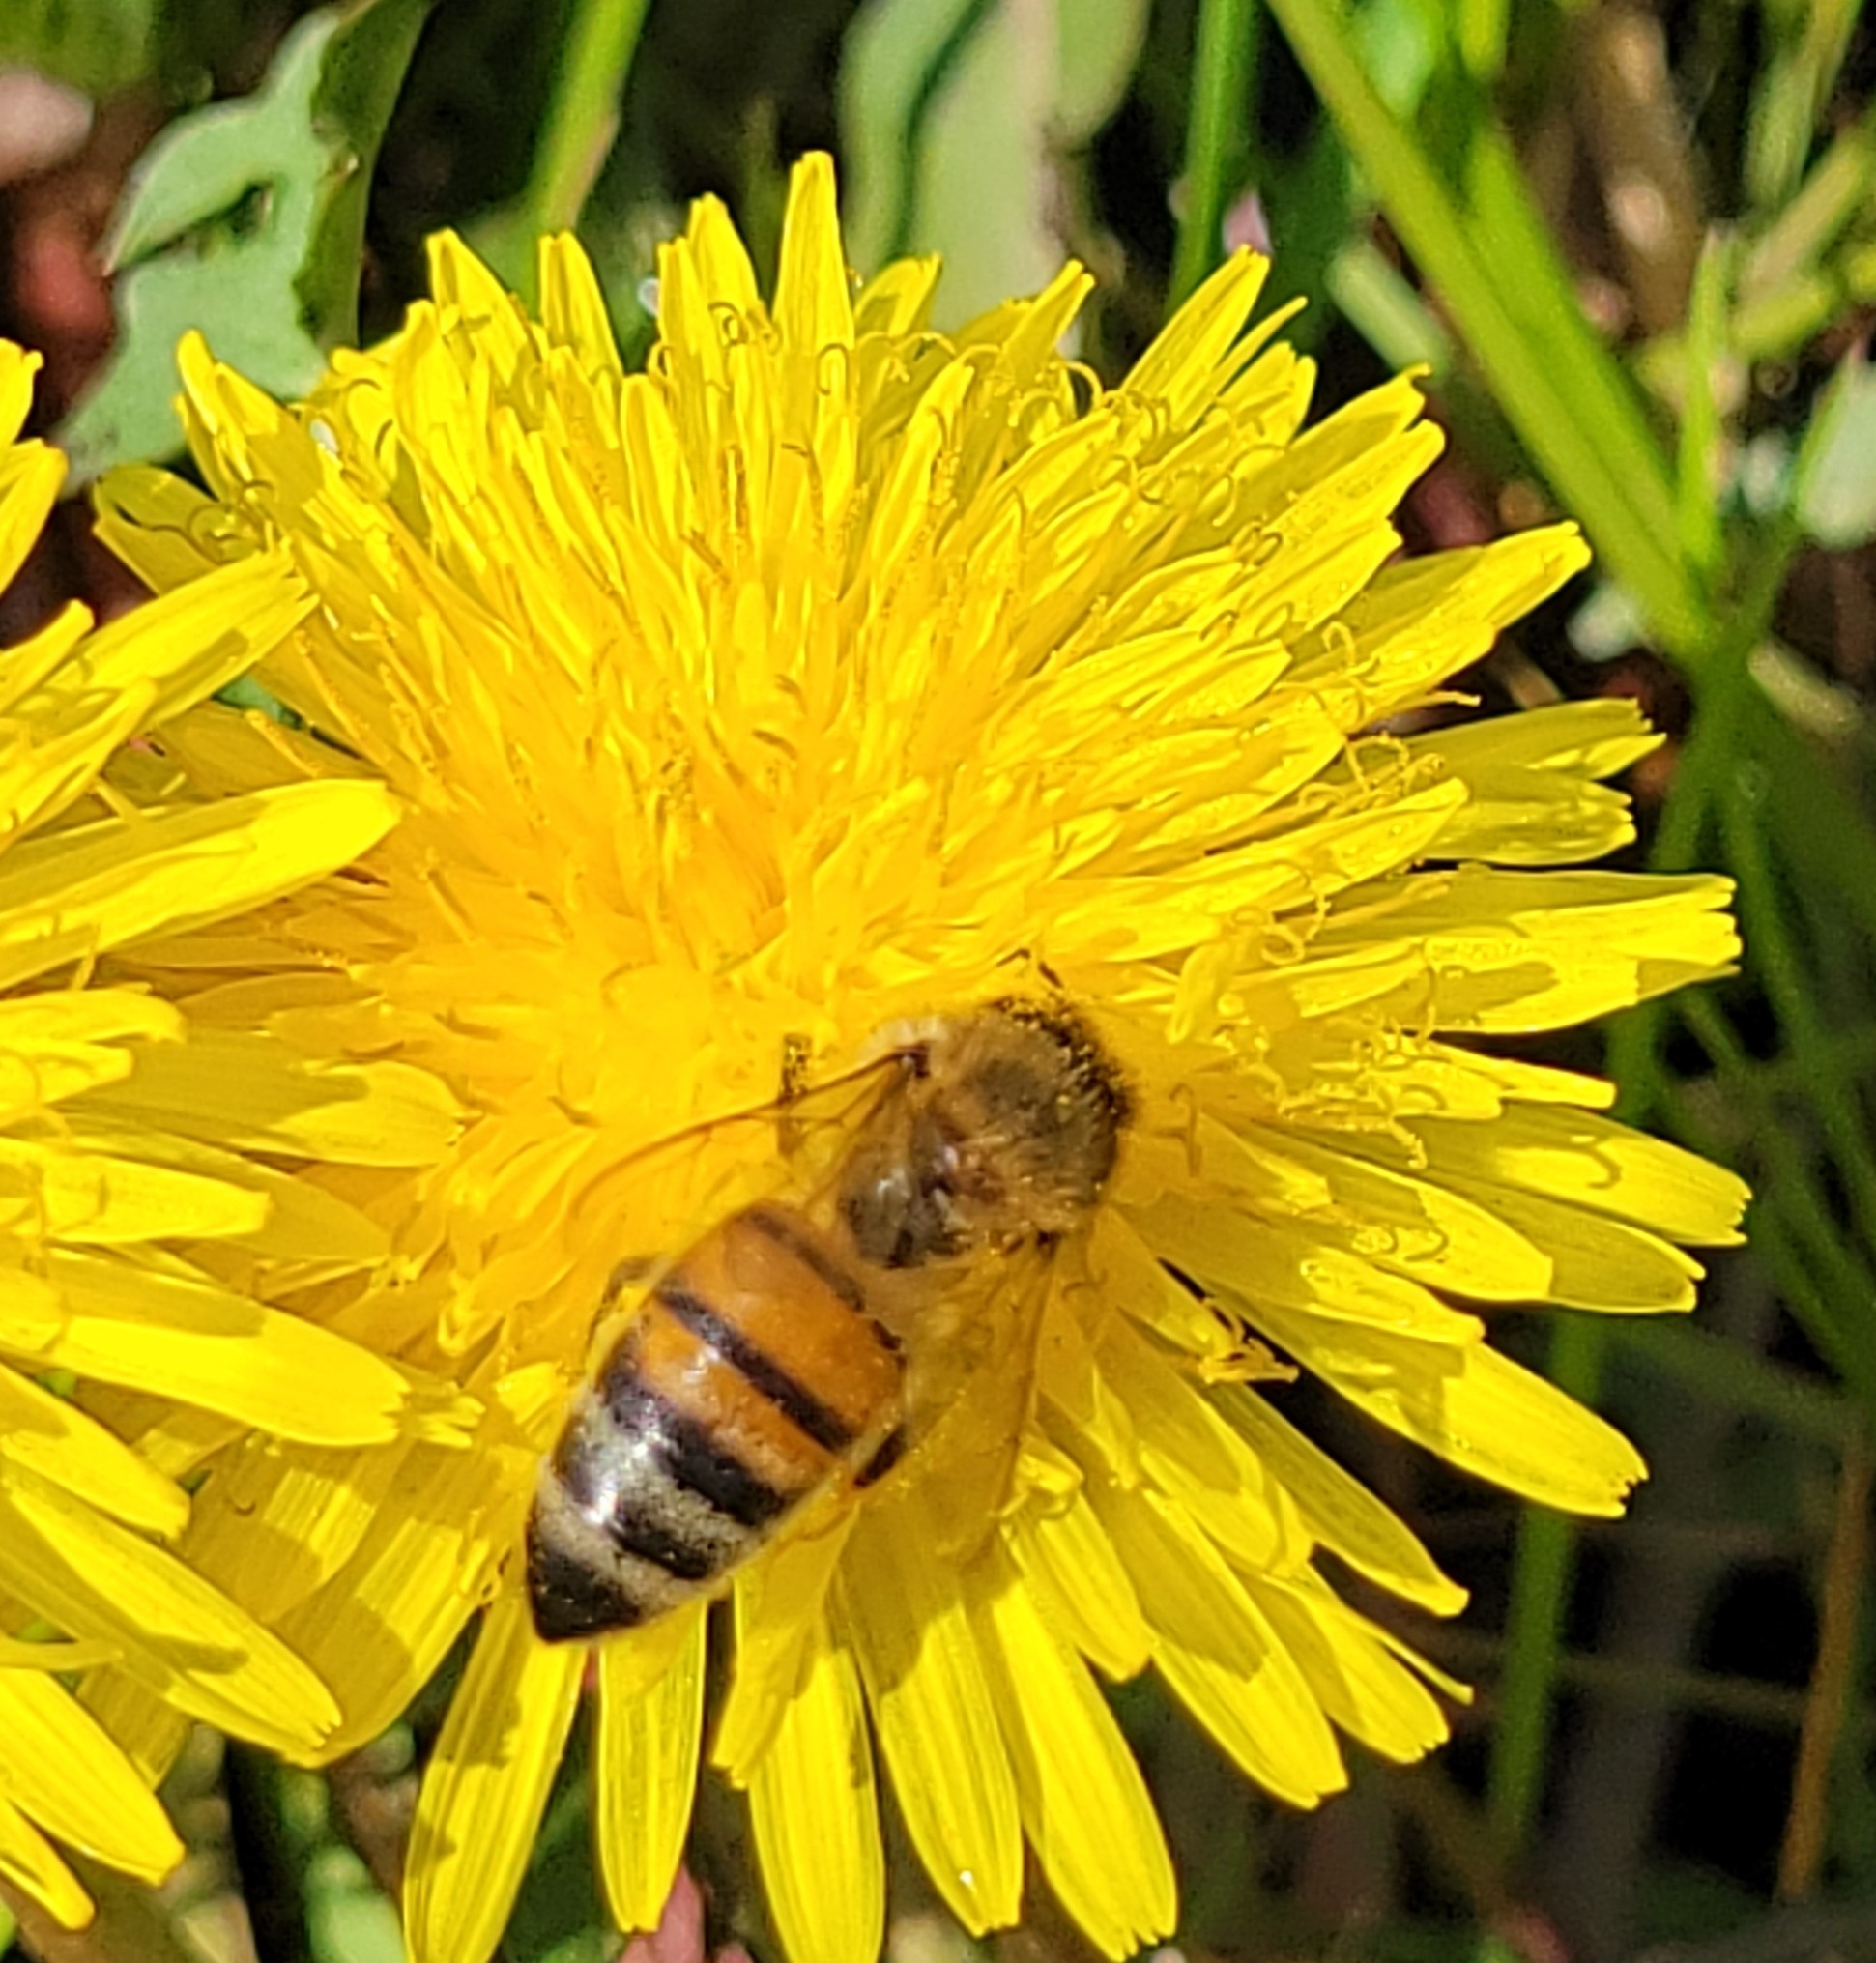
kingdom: Animalia
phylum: Arthropoda
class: Insecta
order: Hymenoptera
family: Apidae
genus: Apis
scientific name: Apis mellifera
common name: Honey bee
